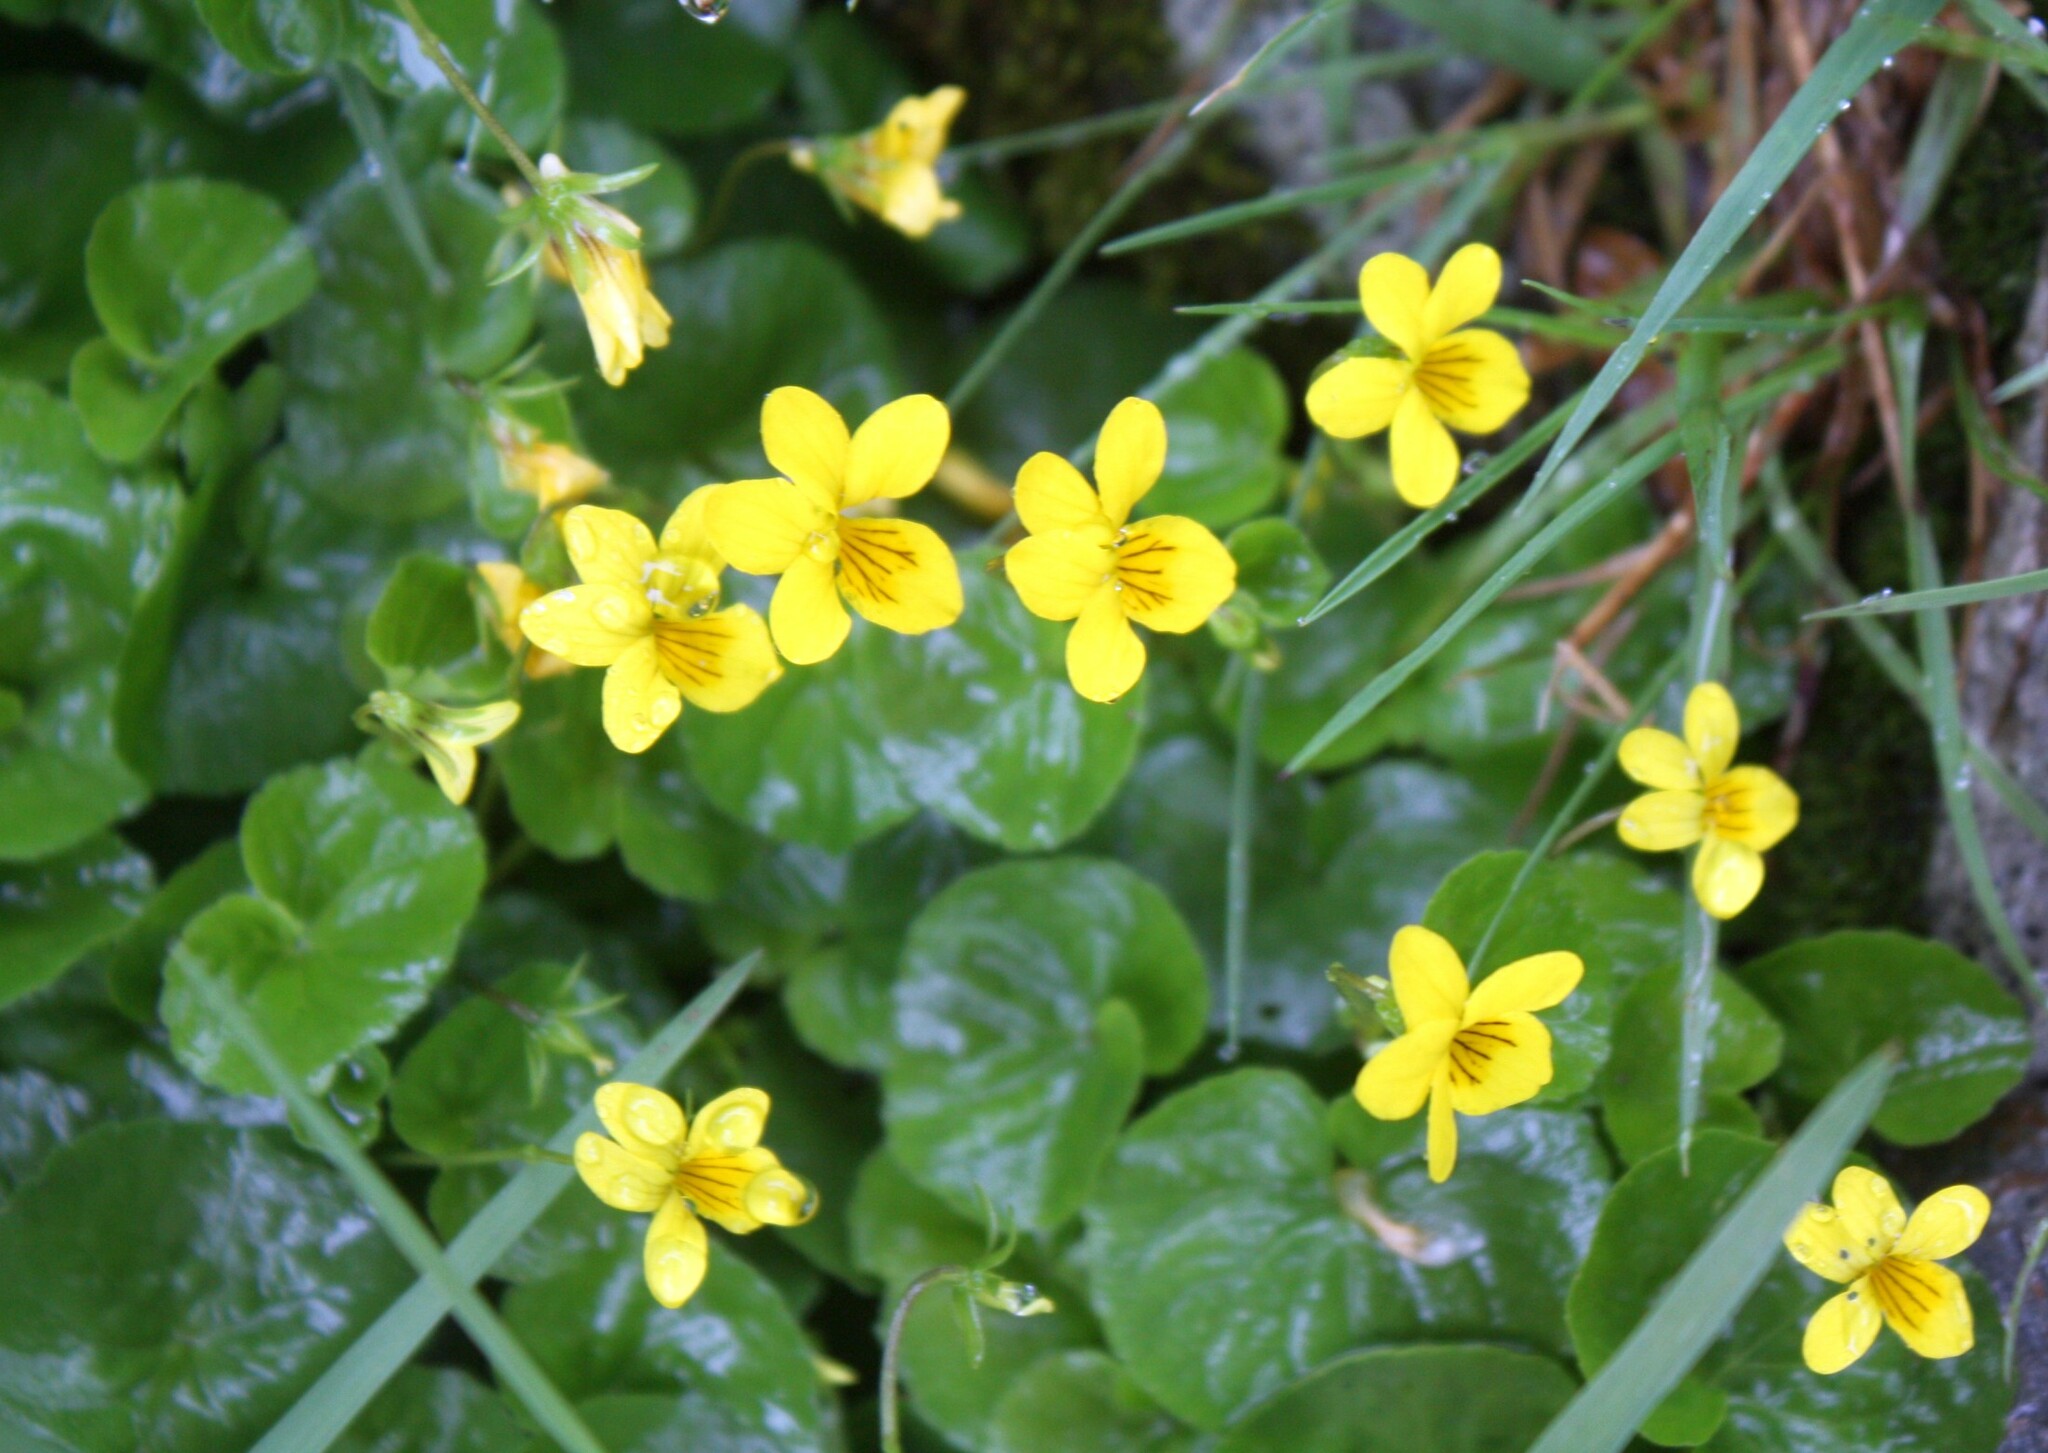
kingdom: Plantae
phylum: Tracheophyta
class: Magnoliopsida
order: Malpighiales
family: Violaceae
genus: Viola
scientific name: Viola biflora
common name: Alpine yellow violet
